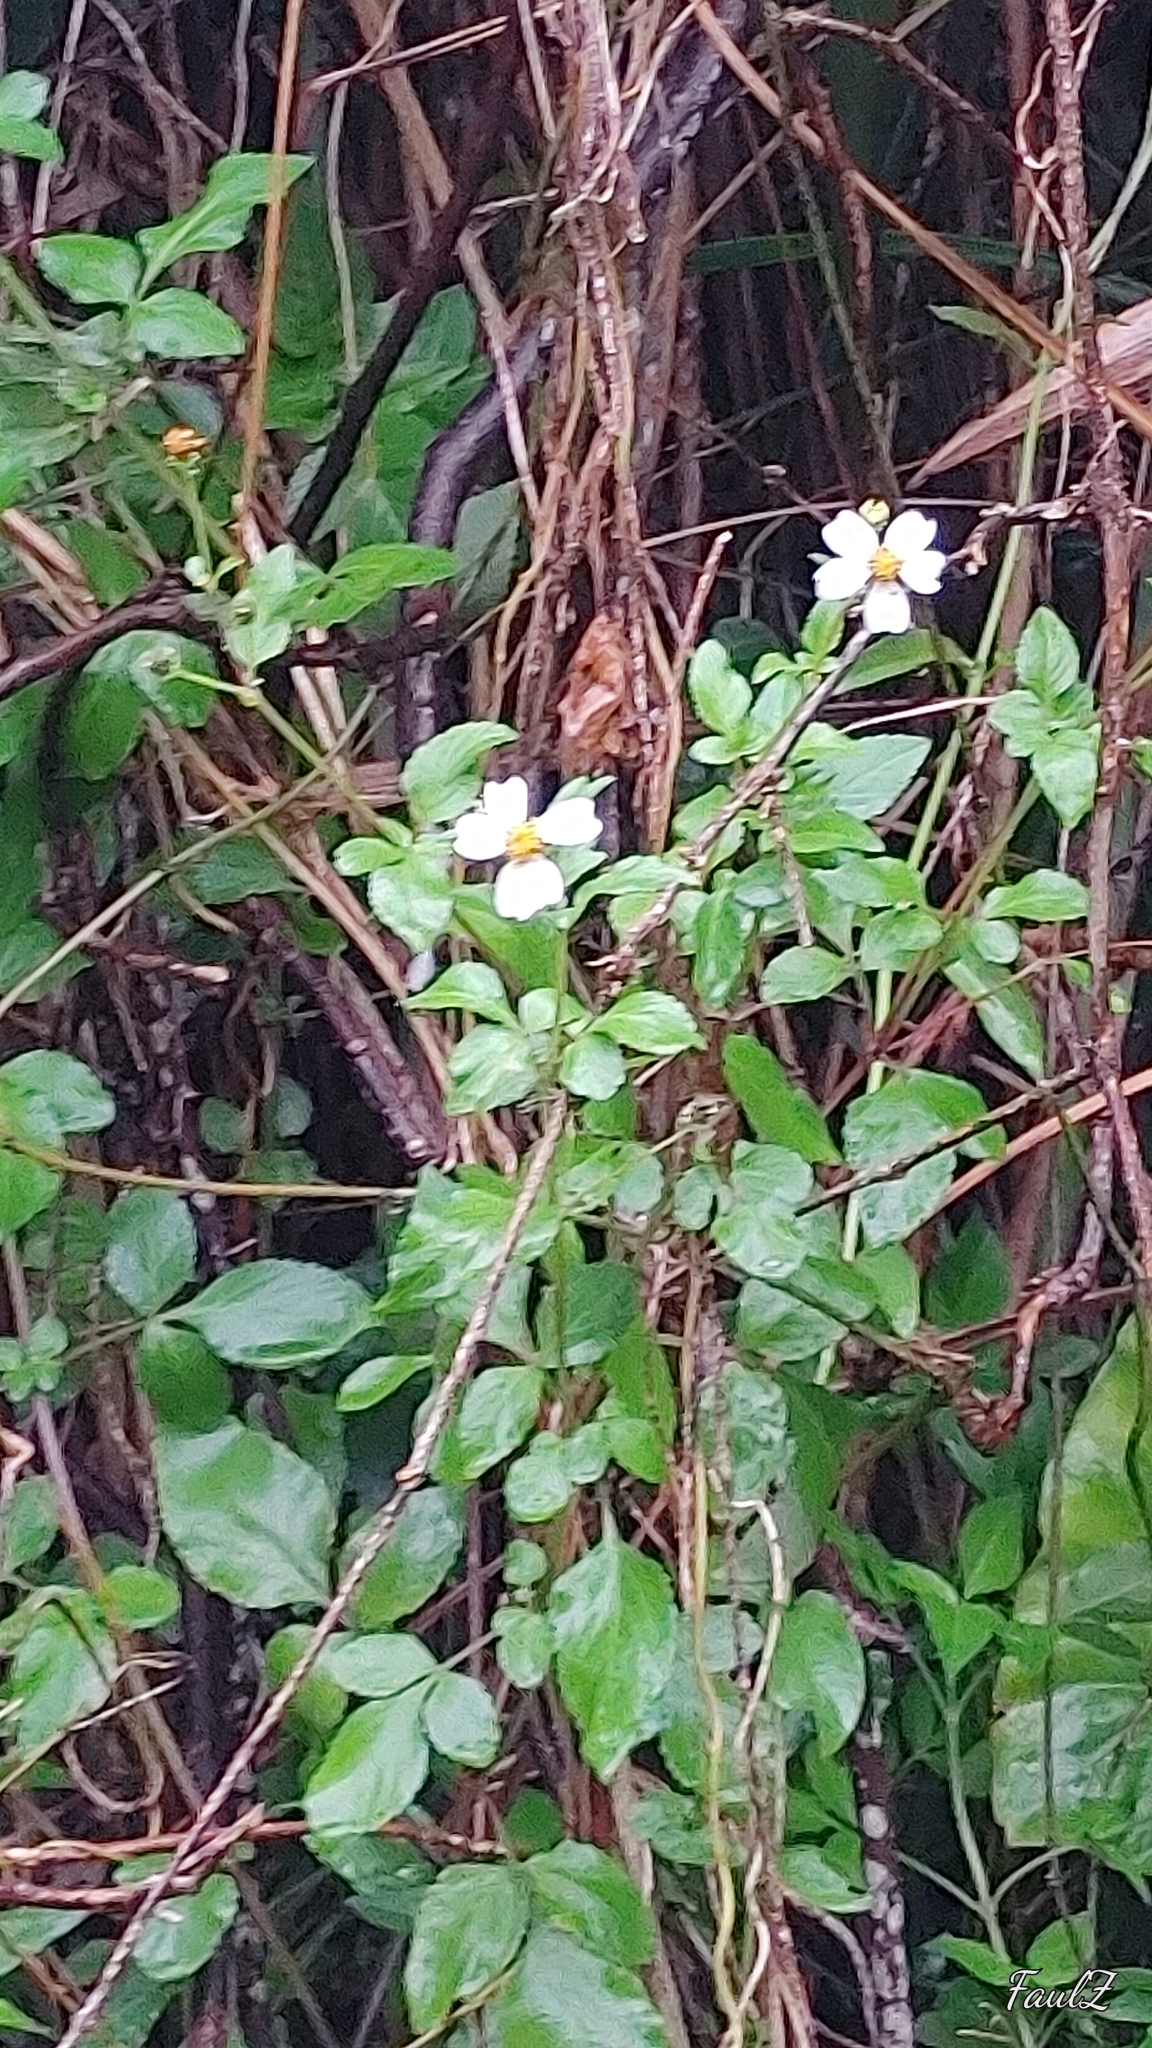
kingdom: Plantae
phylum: Tracheophyta
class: Magnoliopsida
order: Asterales
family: Asteraceae
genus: Bidens
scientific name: Bidens alba
